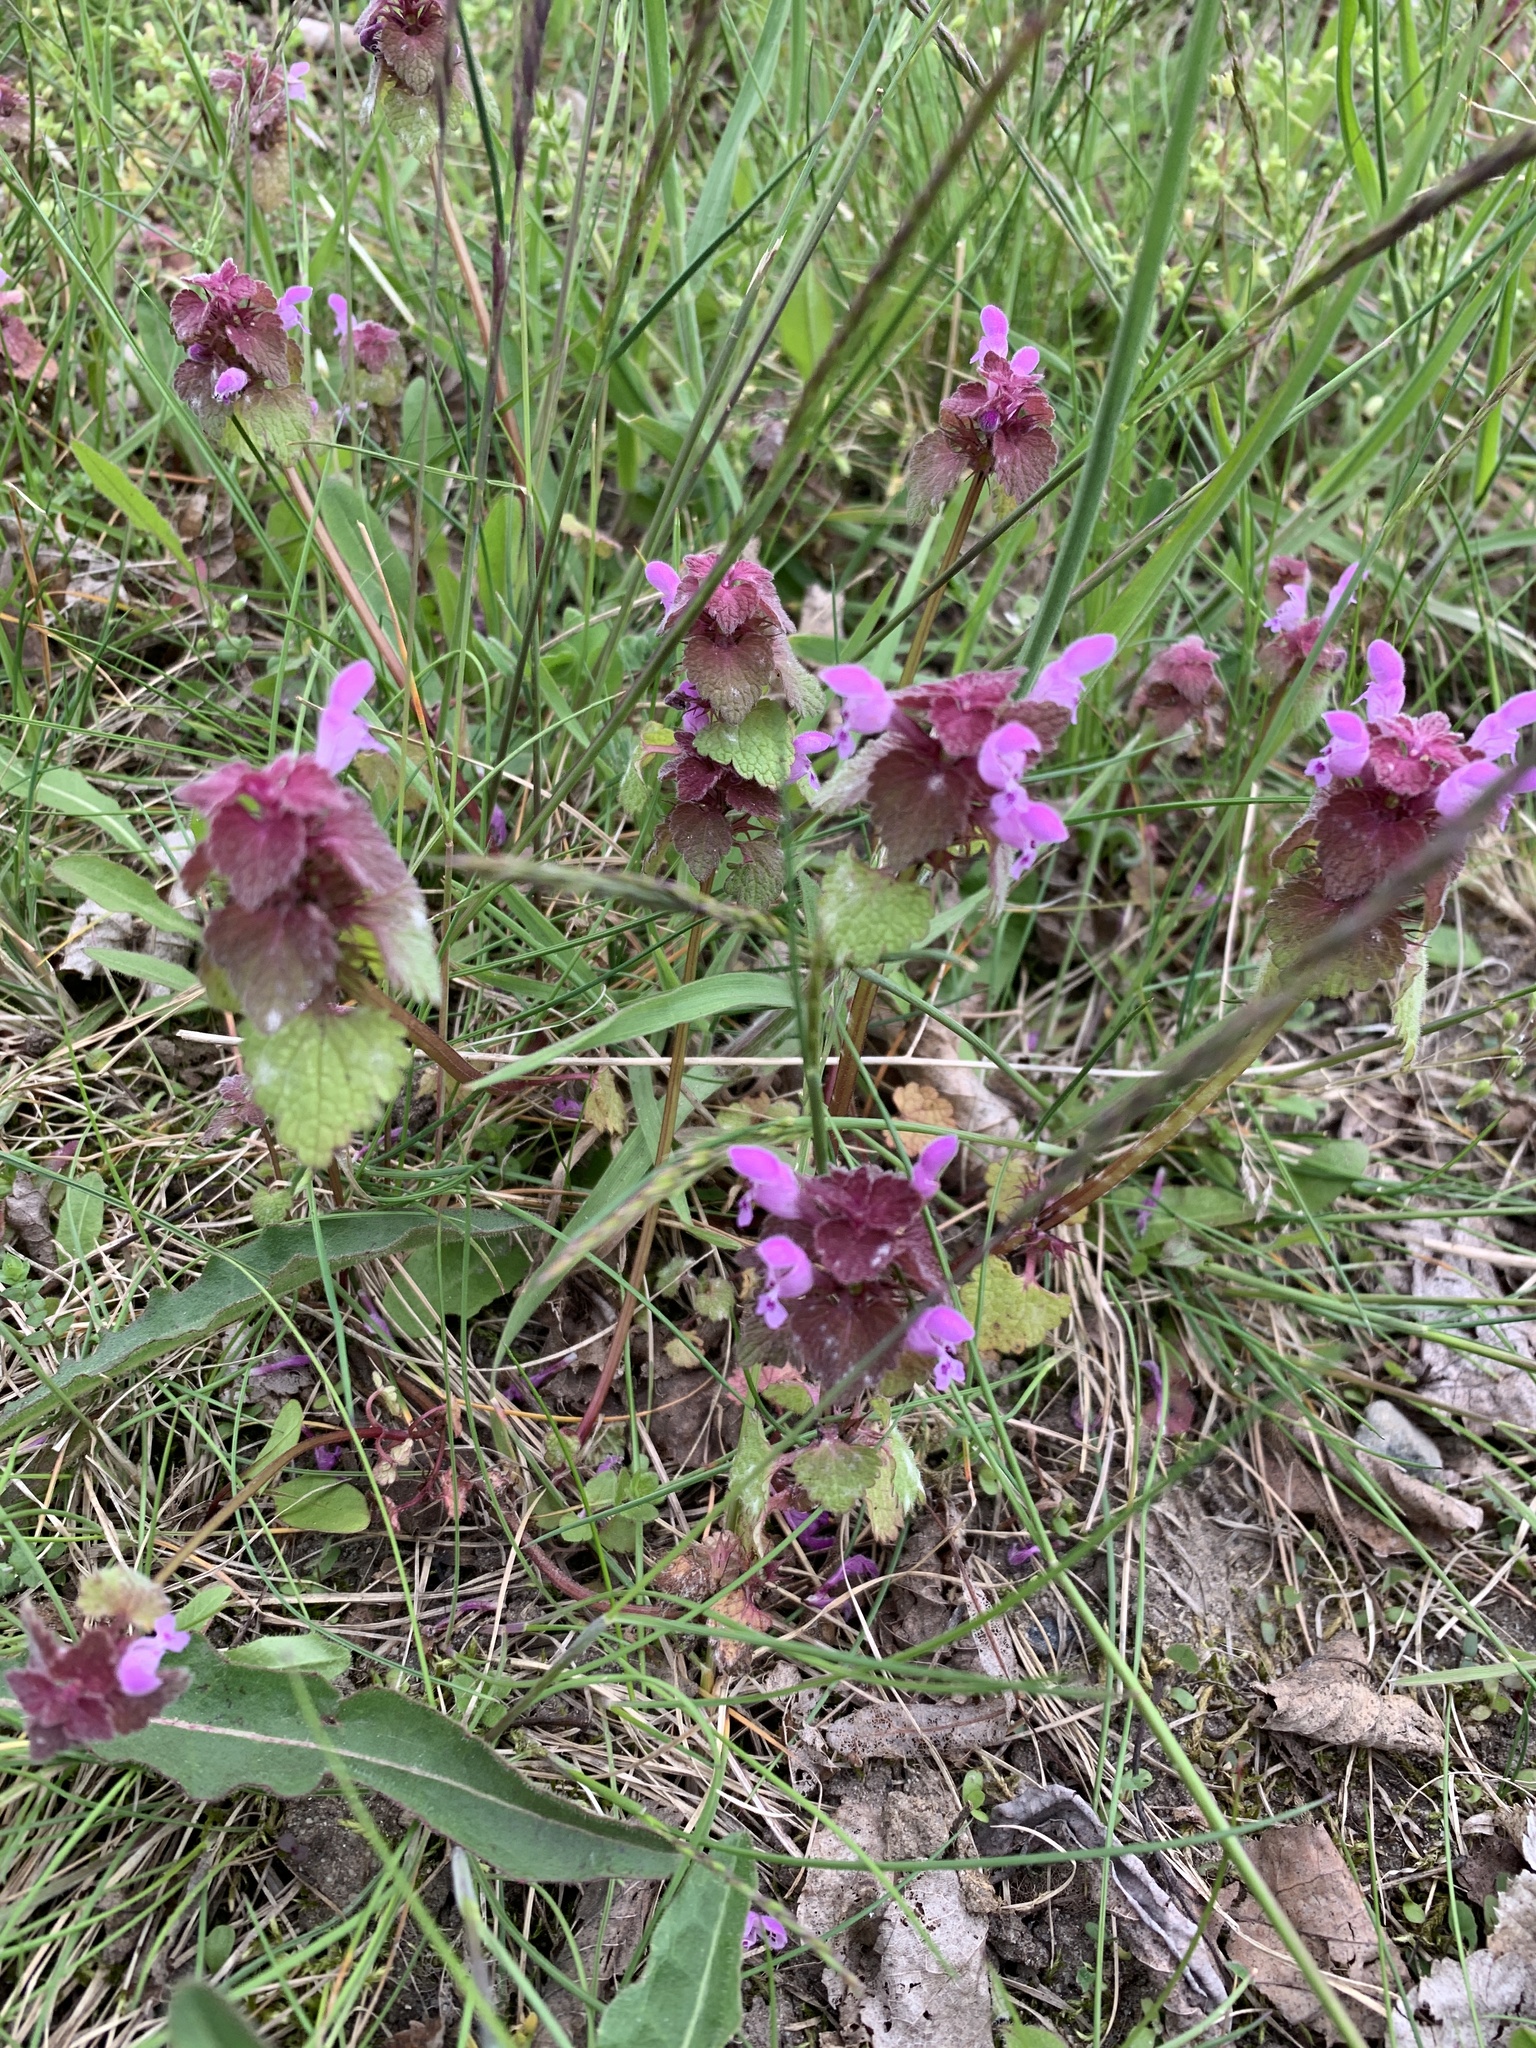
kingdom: Plantae
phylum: Tracheophyta
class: Magnoliopsida
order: Lamiales
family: Lamiaceae
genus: Lamium
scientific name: Lamium purpureum
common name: Red dead-nettle
